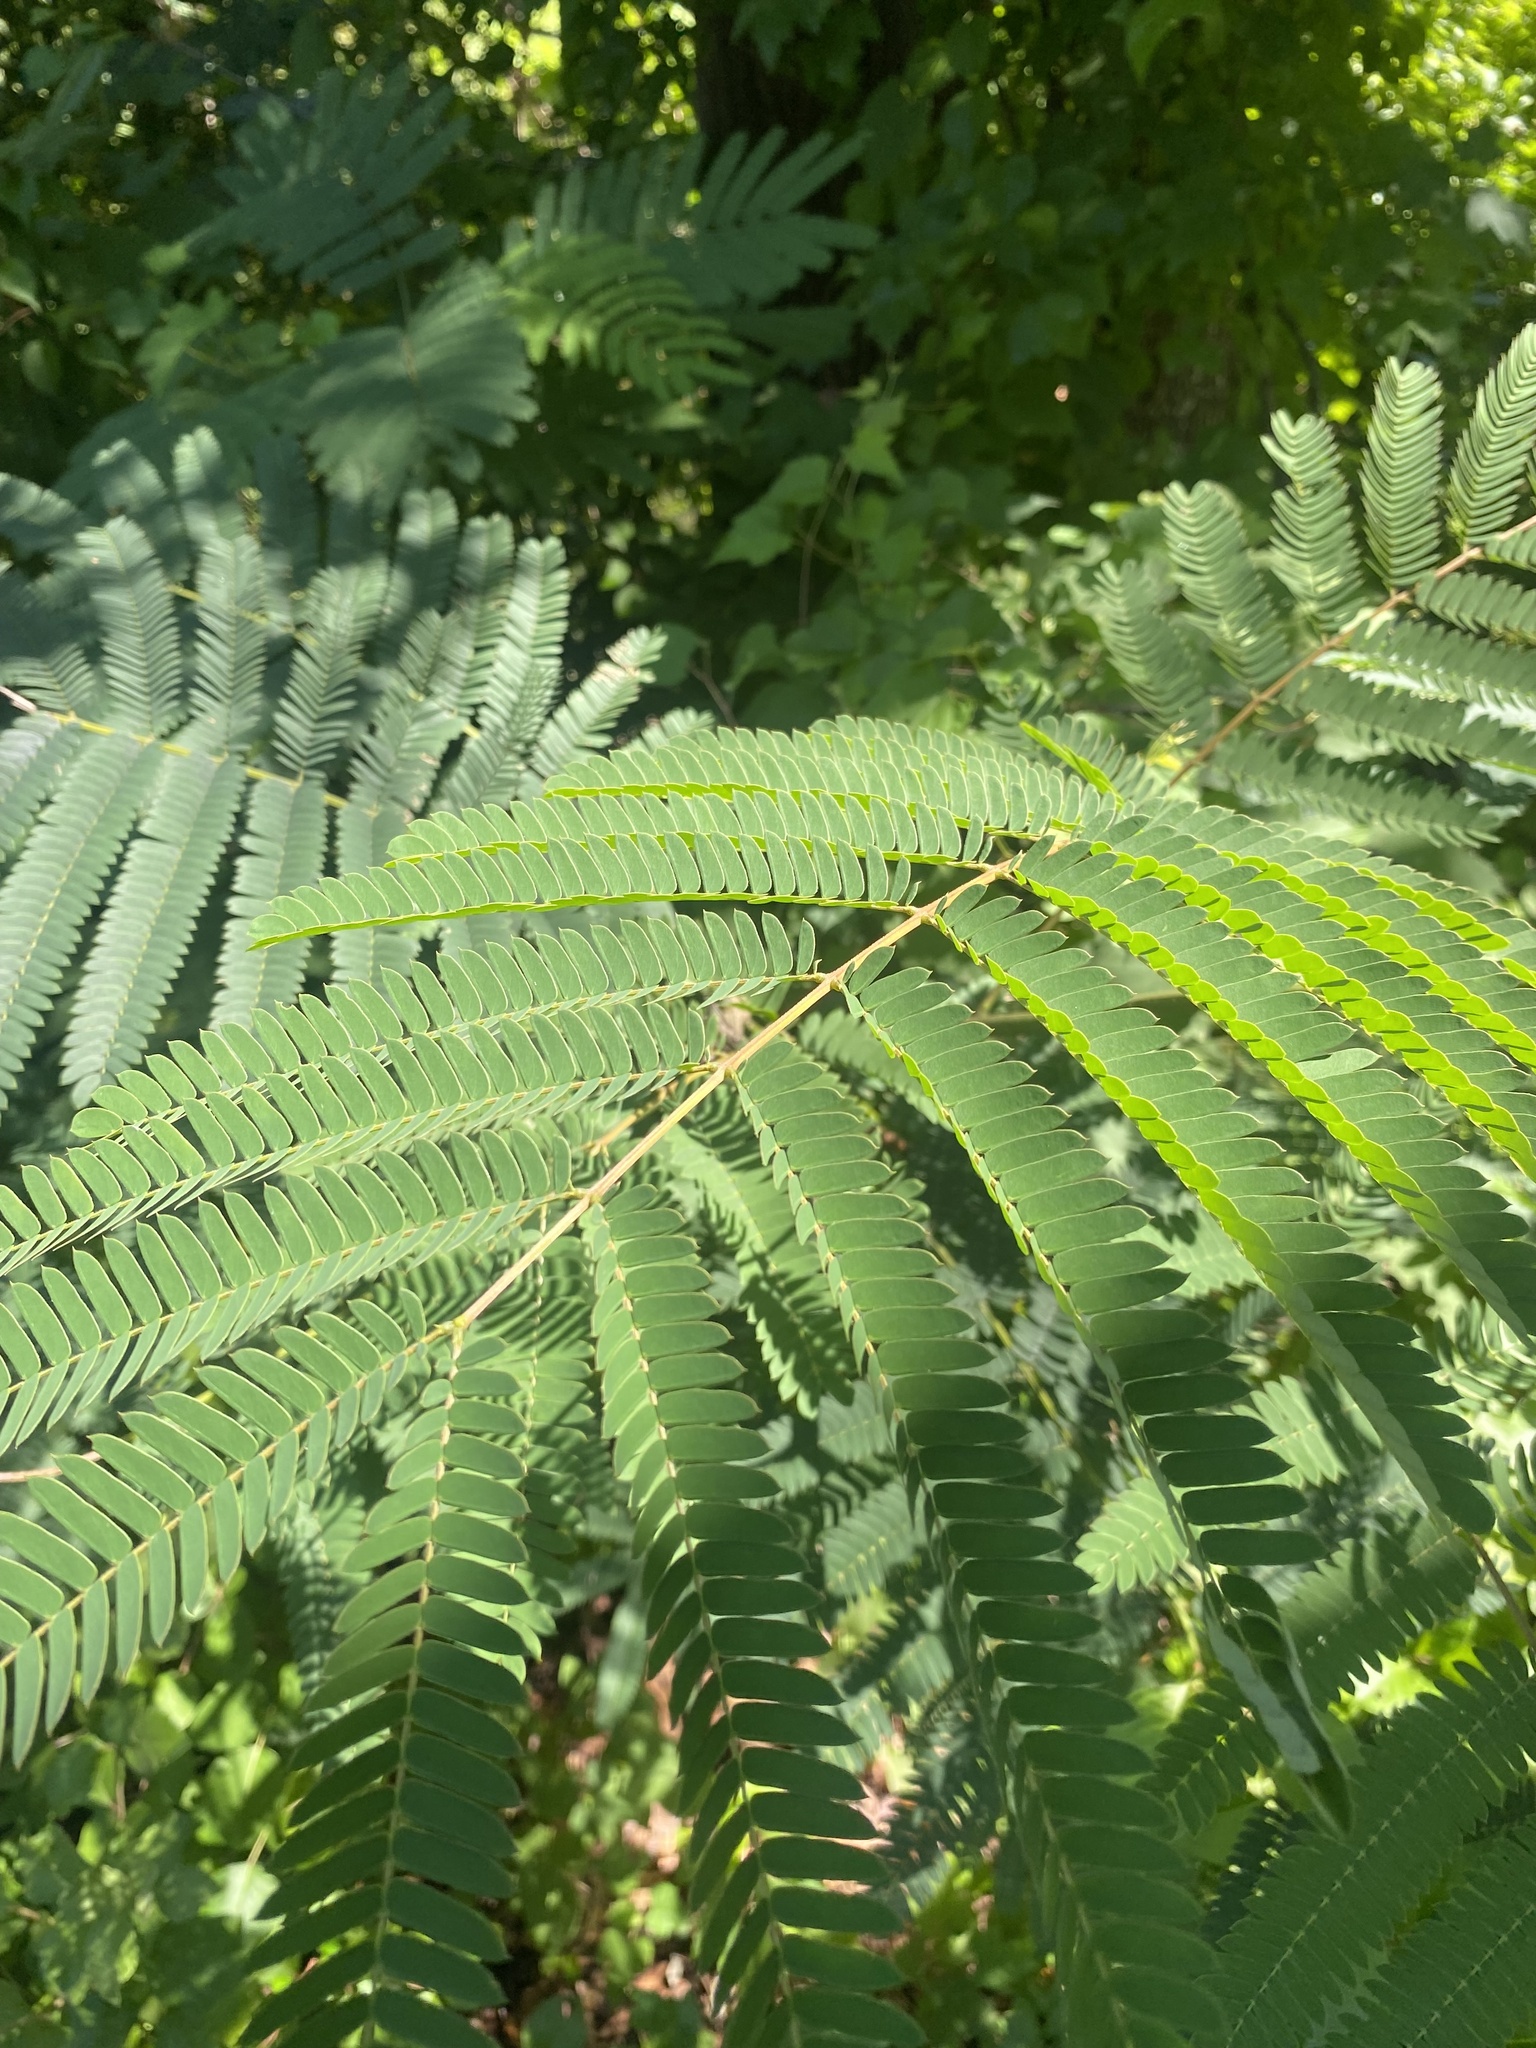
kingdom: Plantae
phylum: Tracheophyta
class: Magnoliopsida
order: Fabales
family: Fabaceae
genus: Albizia
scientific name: Albizia julibrissin
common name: Silktree
